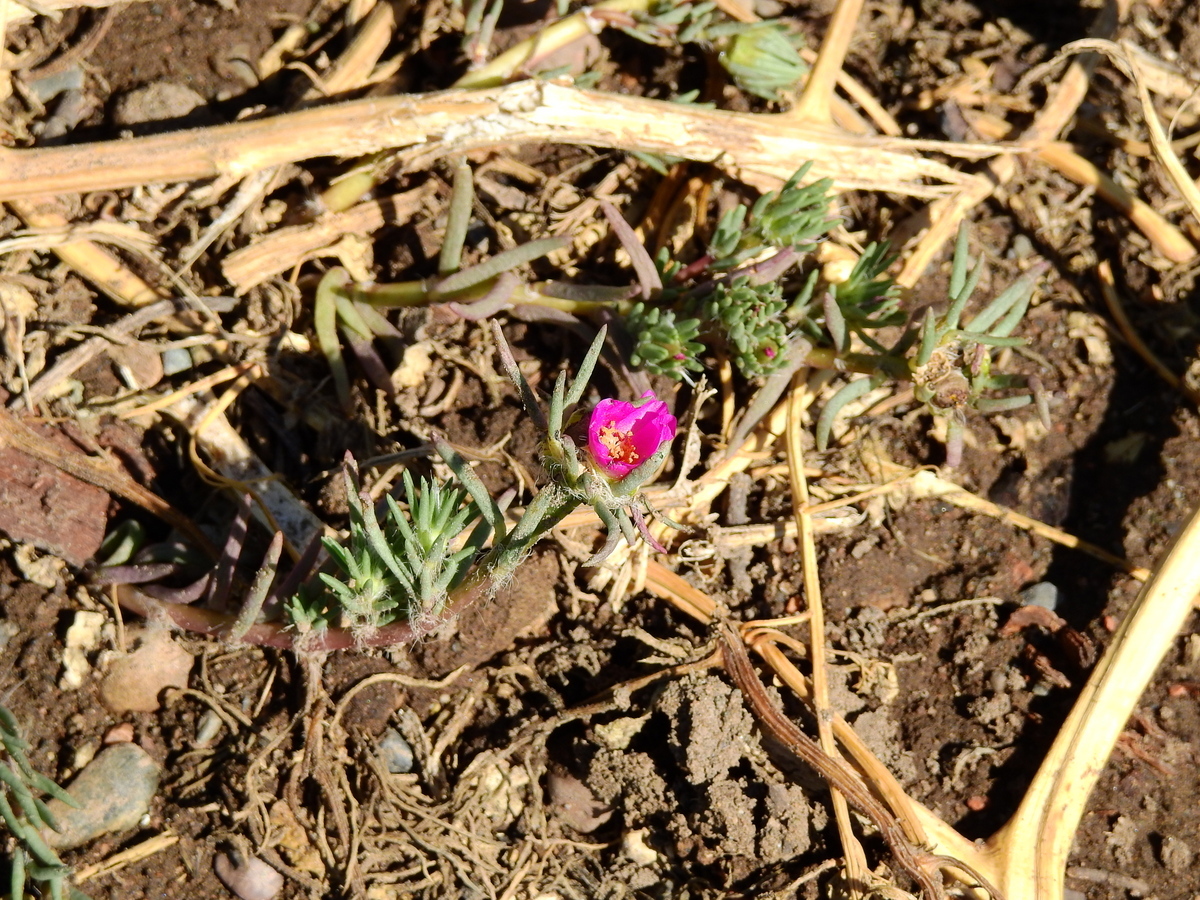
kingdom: Plantae
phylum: Tracheophyta
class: Magnoliopsida
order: Caryophyllales
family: Portulacaceae
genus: Portulaca
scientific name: Portulaca grandiflora
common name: Moss-rose
